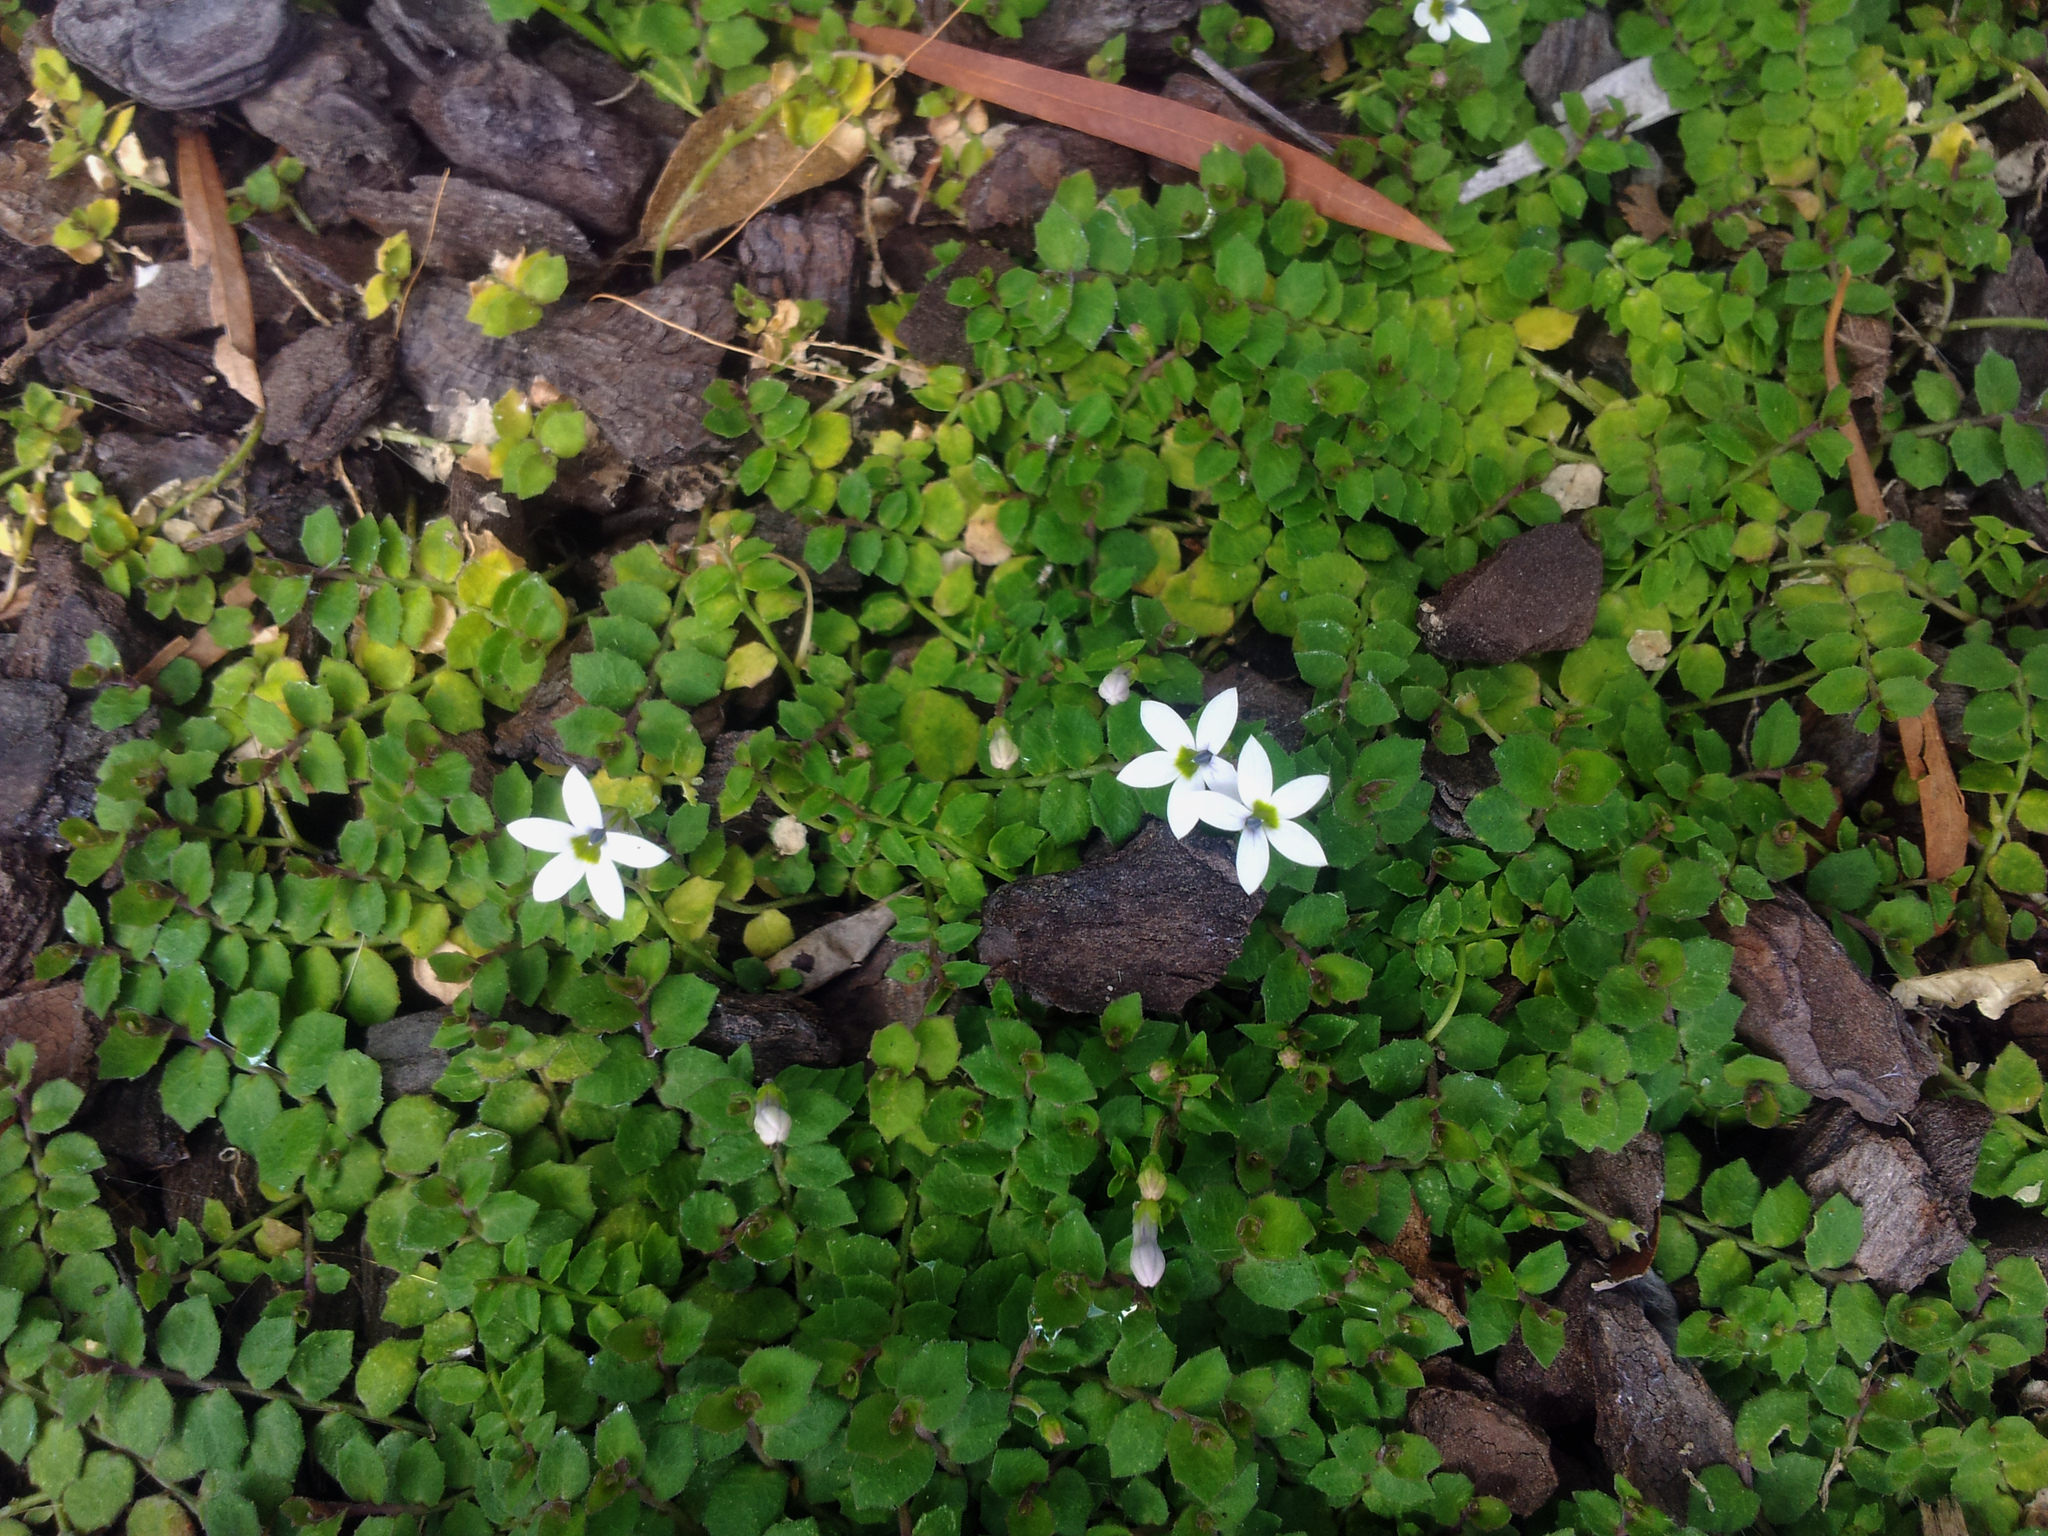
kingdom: Plantae
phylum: Tracheophyta
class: Magnoliopsida
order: Asterales
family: Campanulaceae
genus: Lobelia
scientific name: Lobelia pedunculata
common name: Matted pratia
